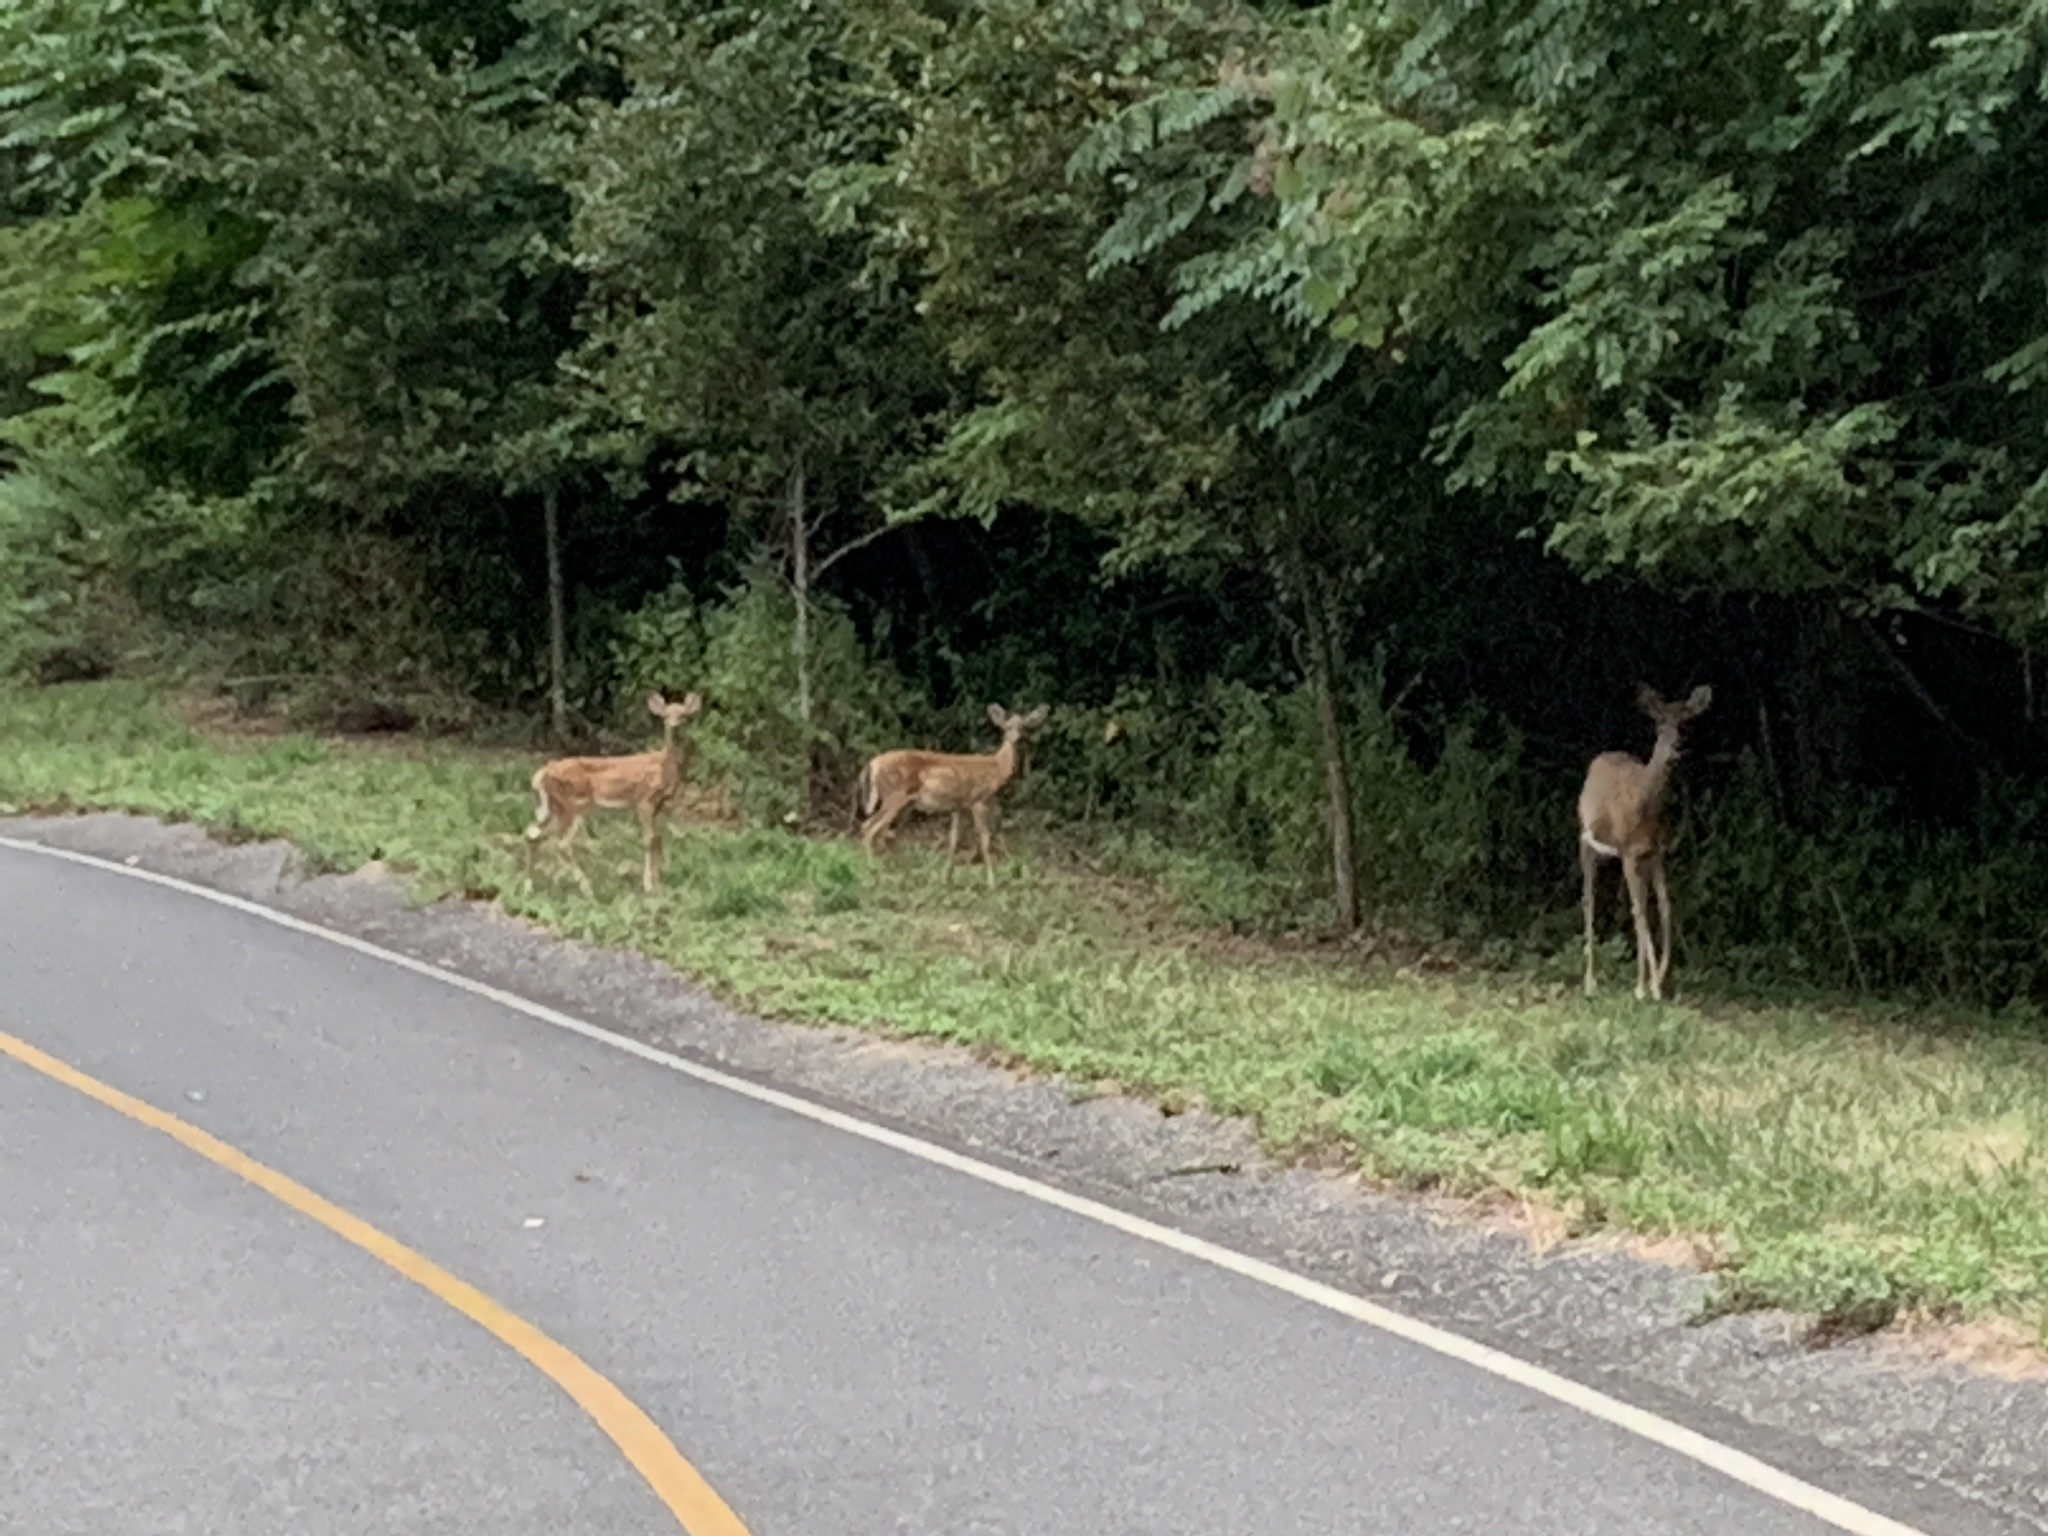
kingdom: Animalia
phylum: Chordata
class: Mammalia
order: Artiodactyla
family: Cervidae
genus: Odocoileus
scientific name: Odocoileus virginianus
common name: White-tailed deer
